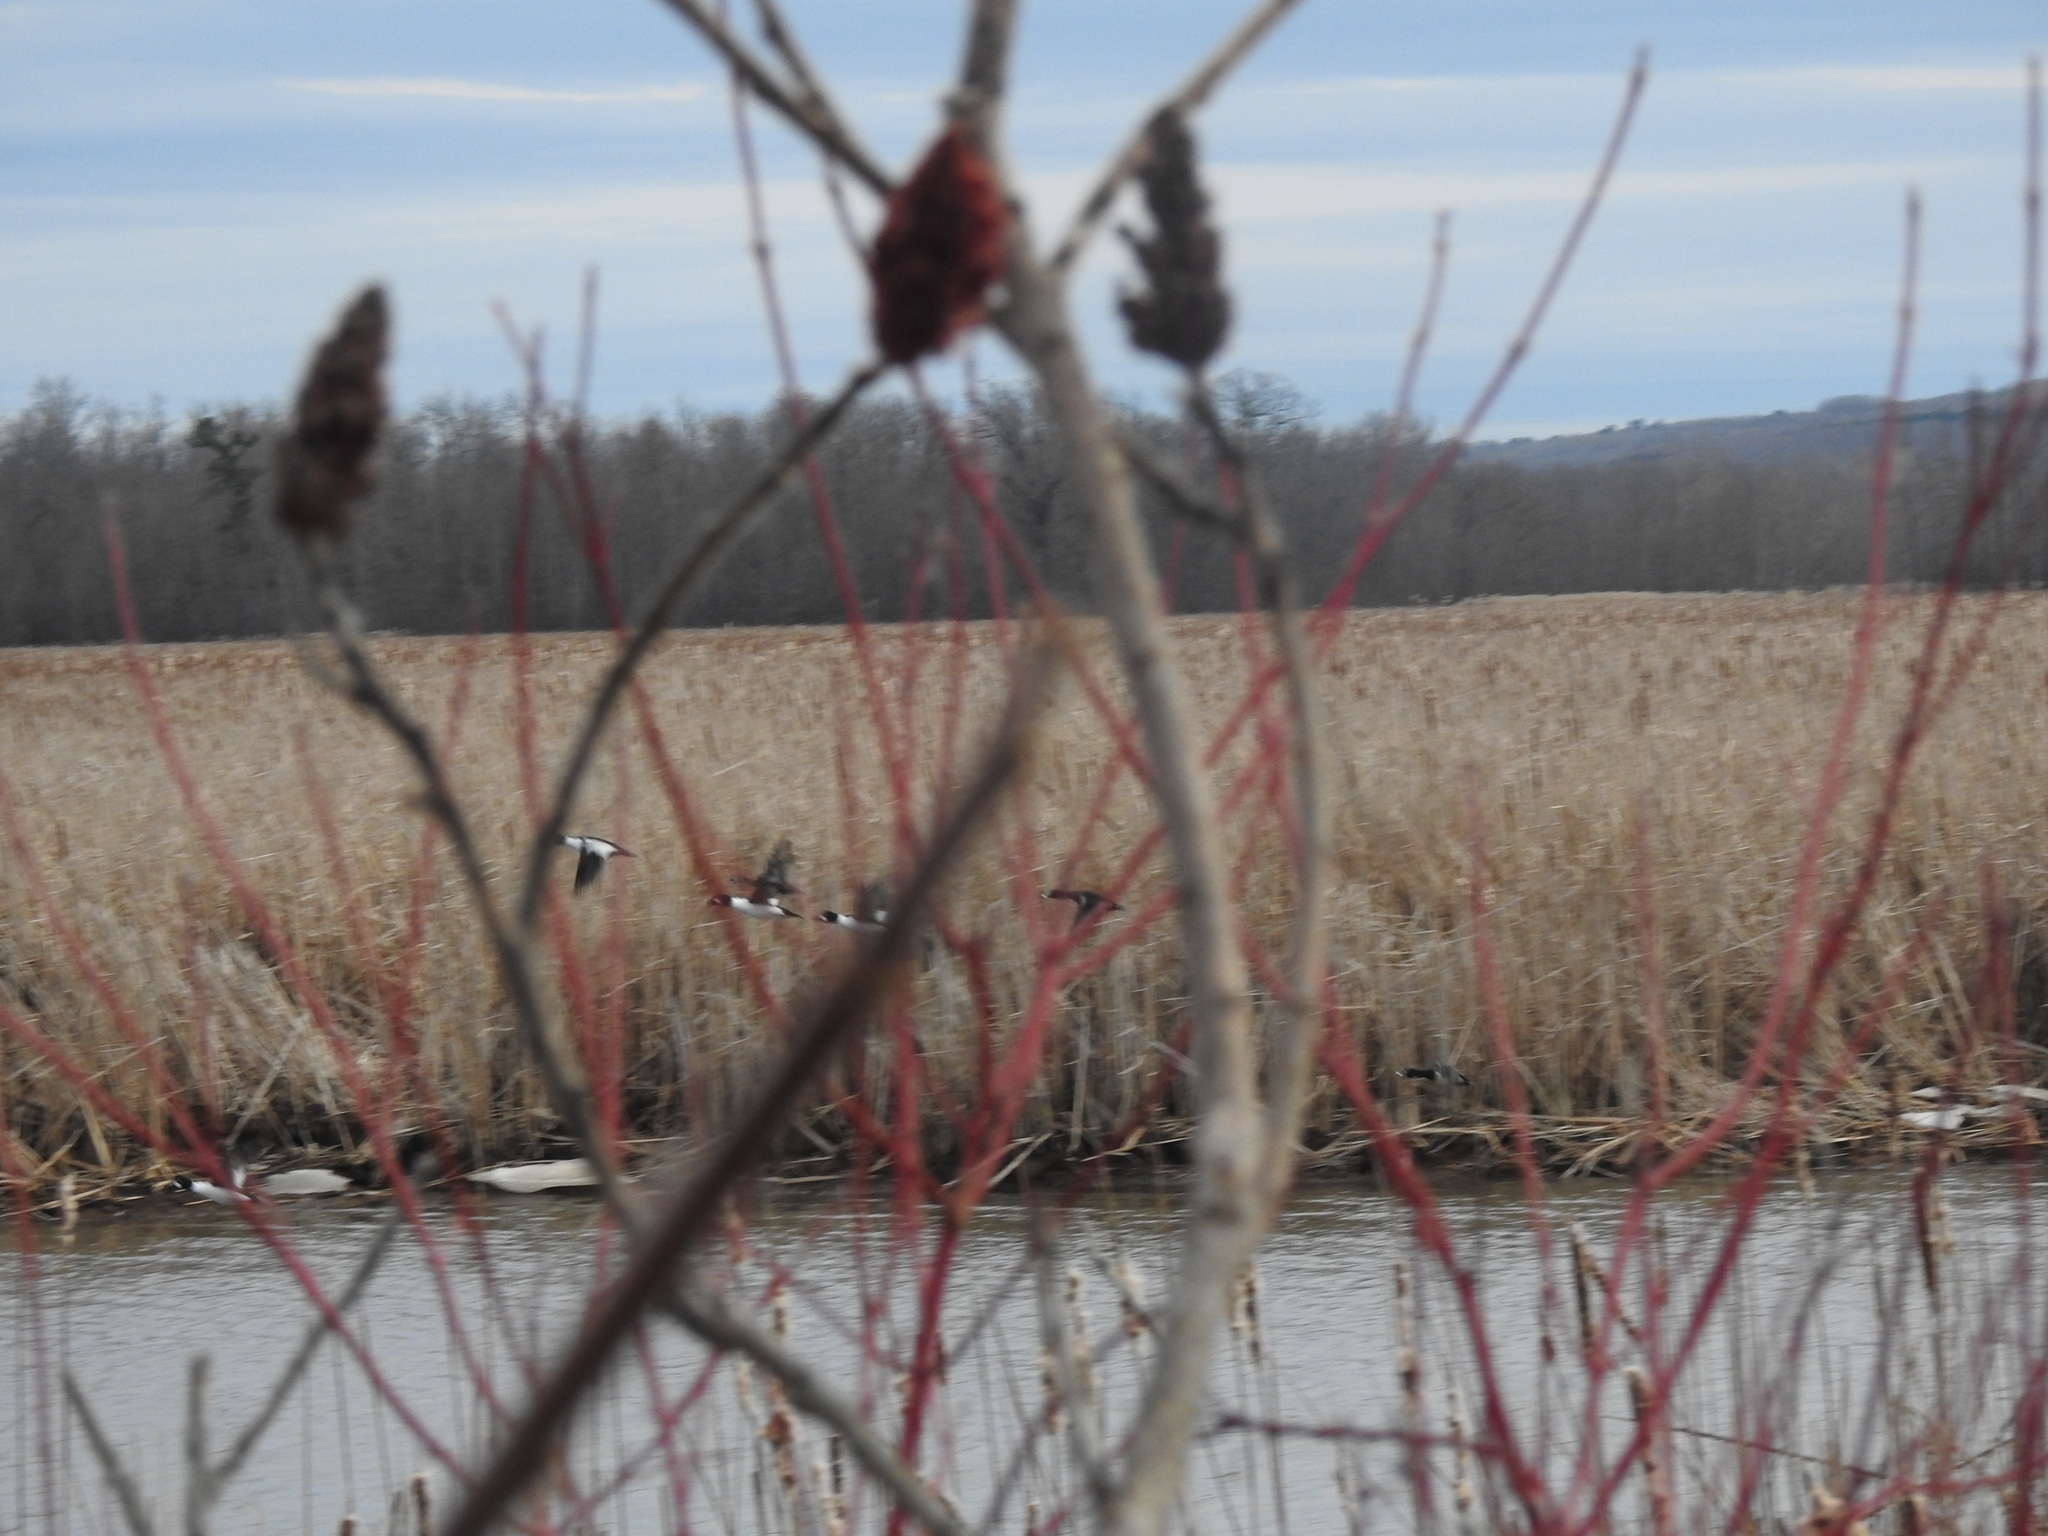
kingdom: Animalia
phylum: Chordata
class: Aves
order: Anseriformes
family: Anatidae
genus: Bucephala
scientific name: Bucephala clangula
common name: Common goldeneye
